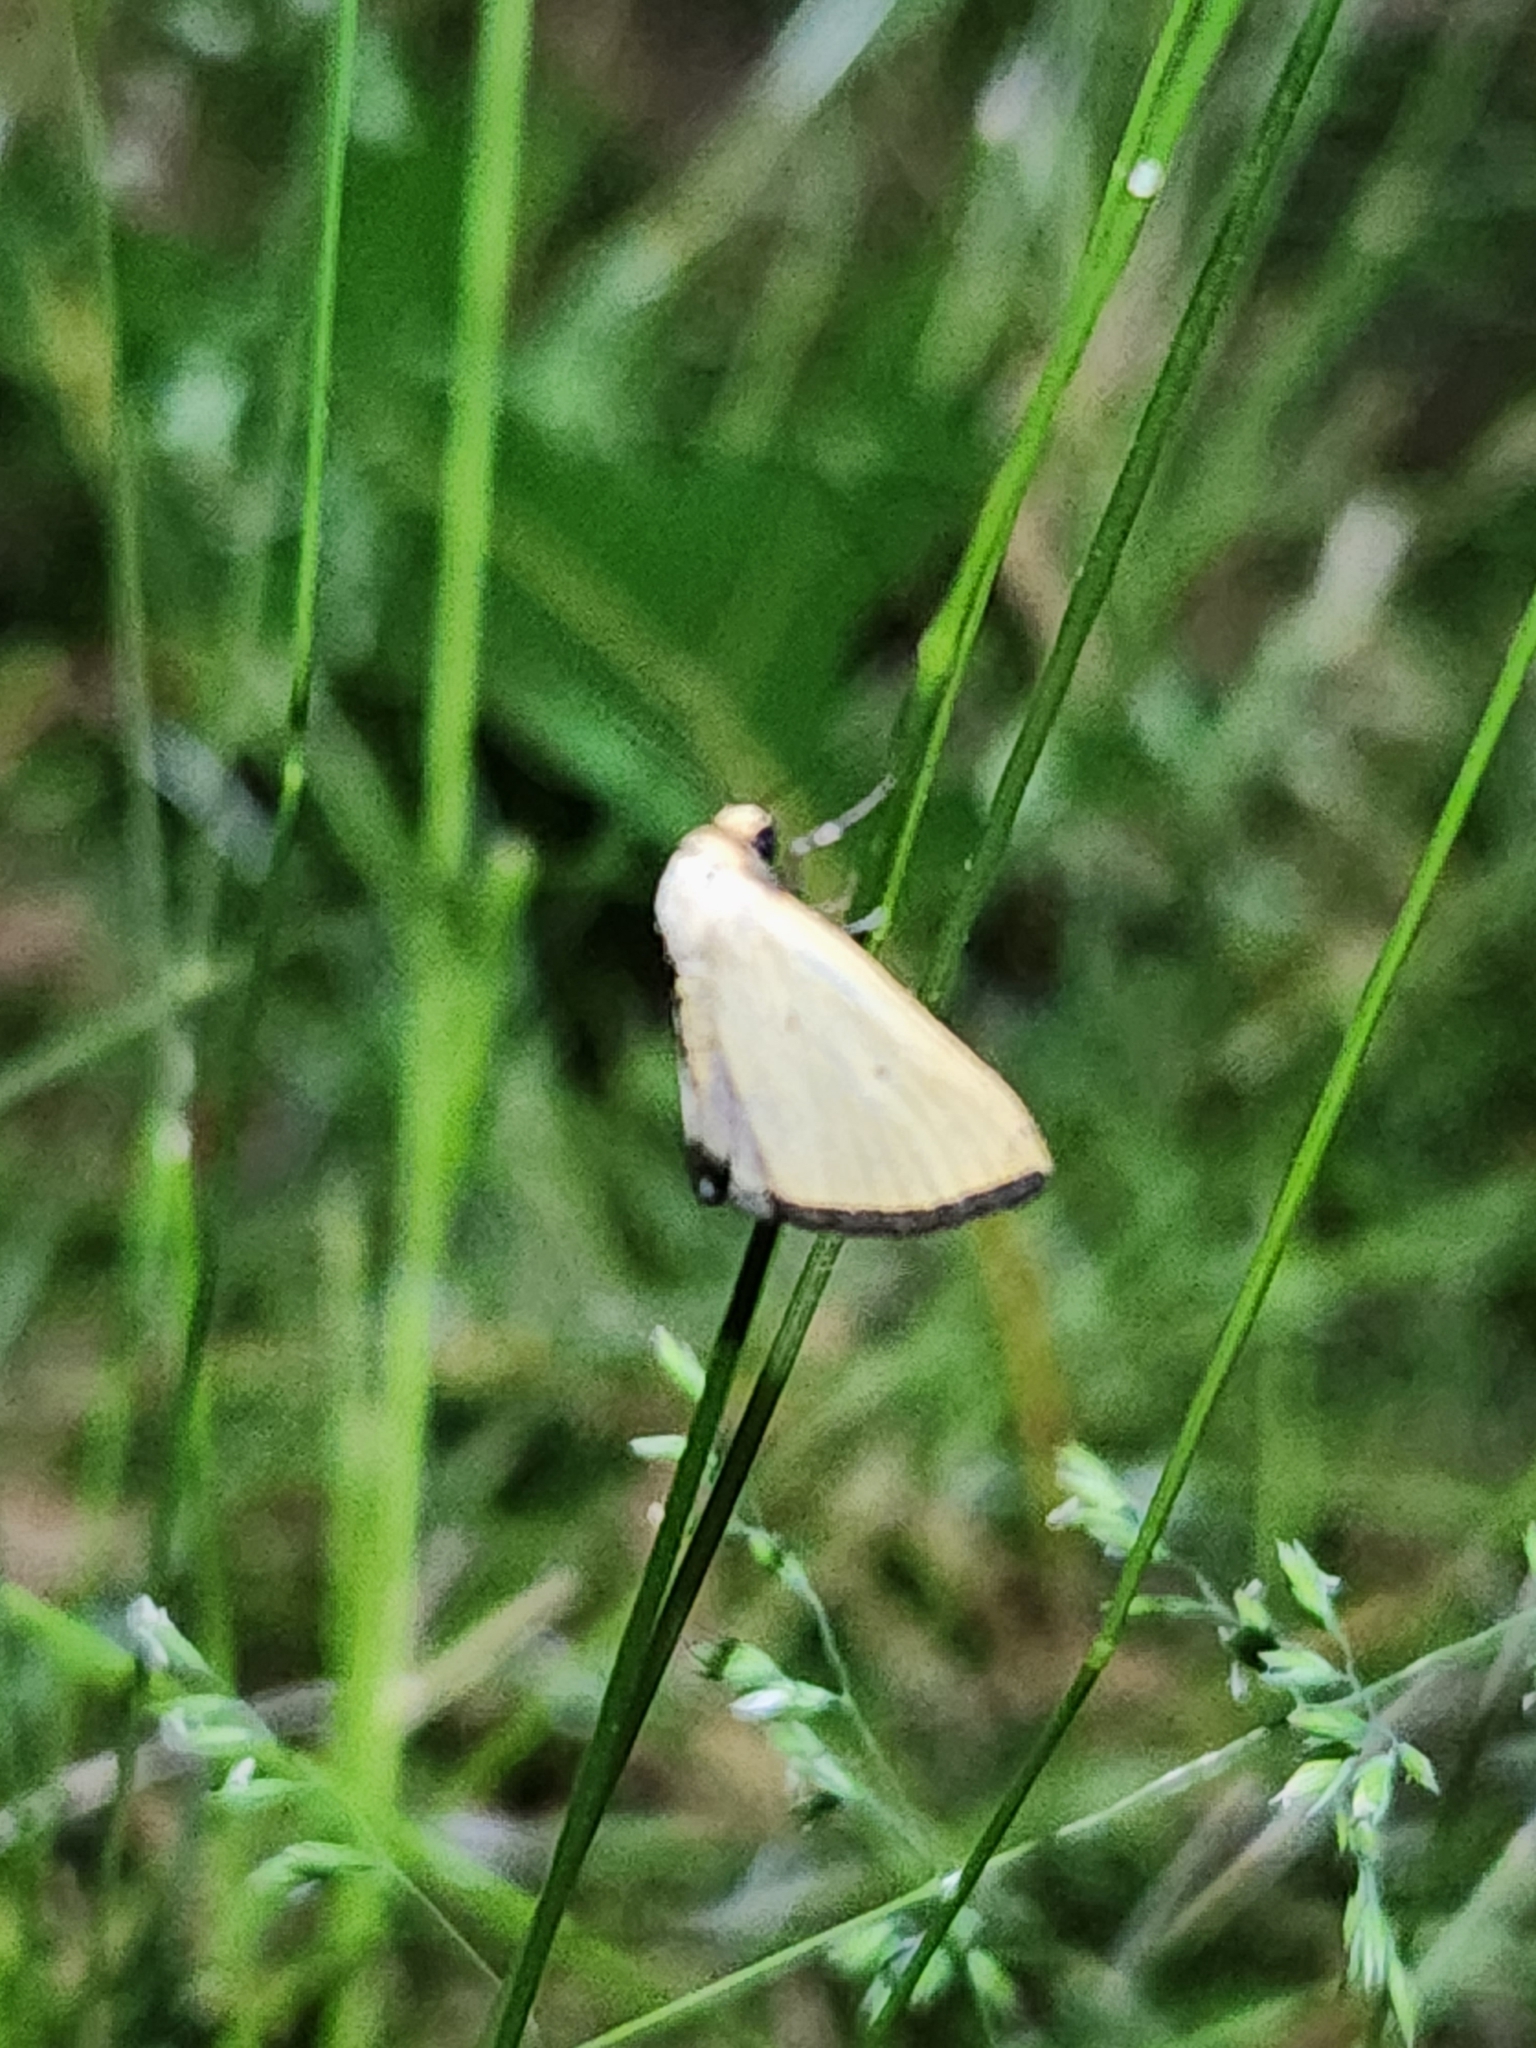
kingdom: Animalia
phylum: Arthropoda
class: Insecta
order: Lepidoptera
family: Noctuidae
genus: Marimatha
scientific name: Marimatha nigrofimbria
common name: Black-bordered lemon moth
